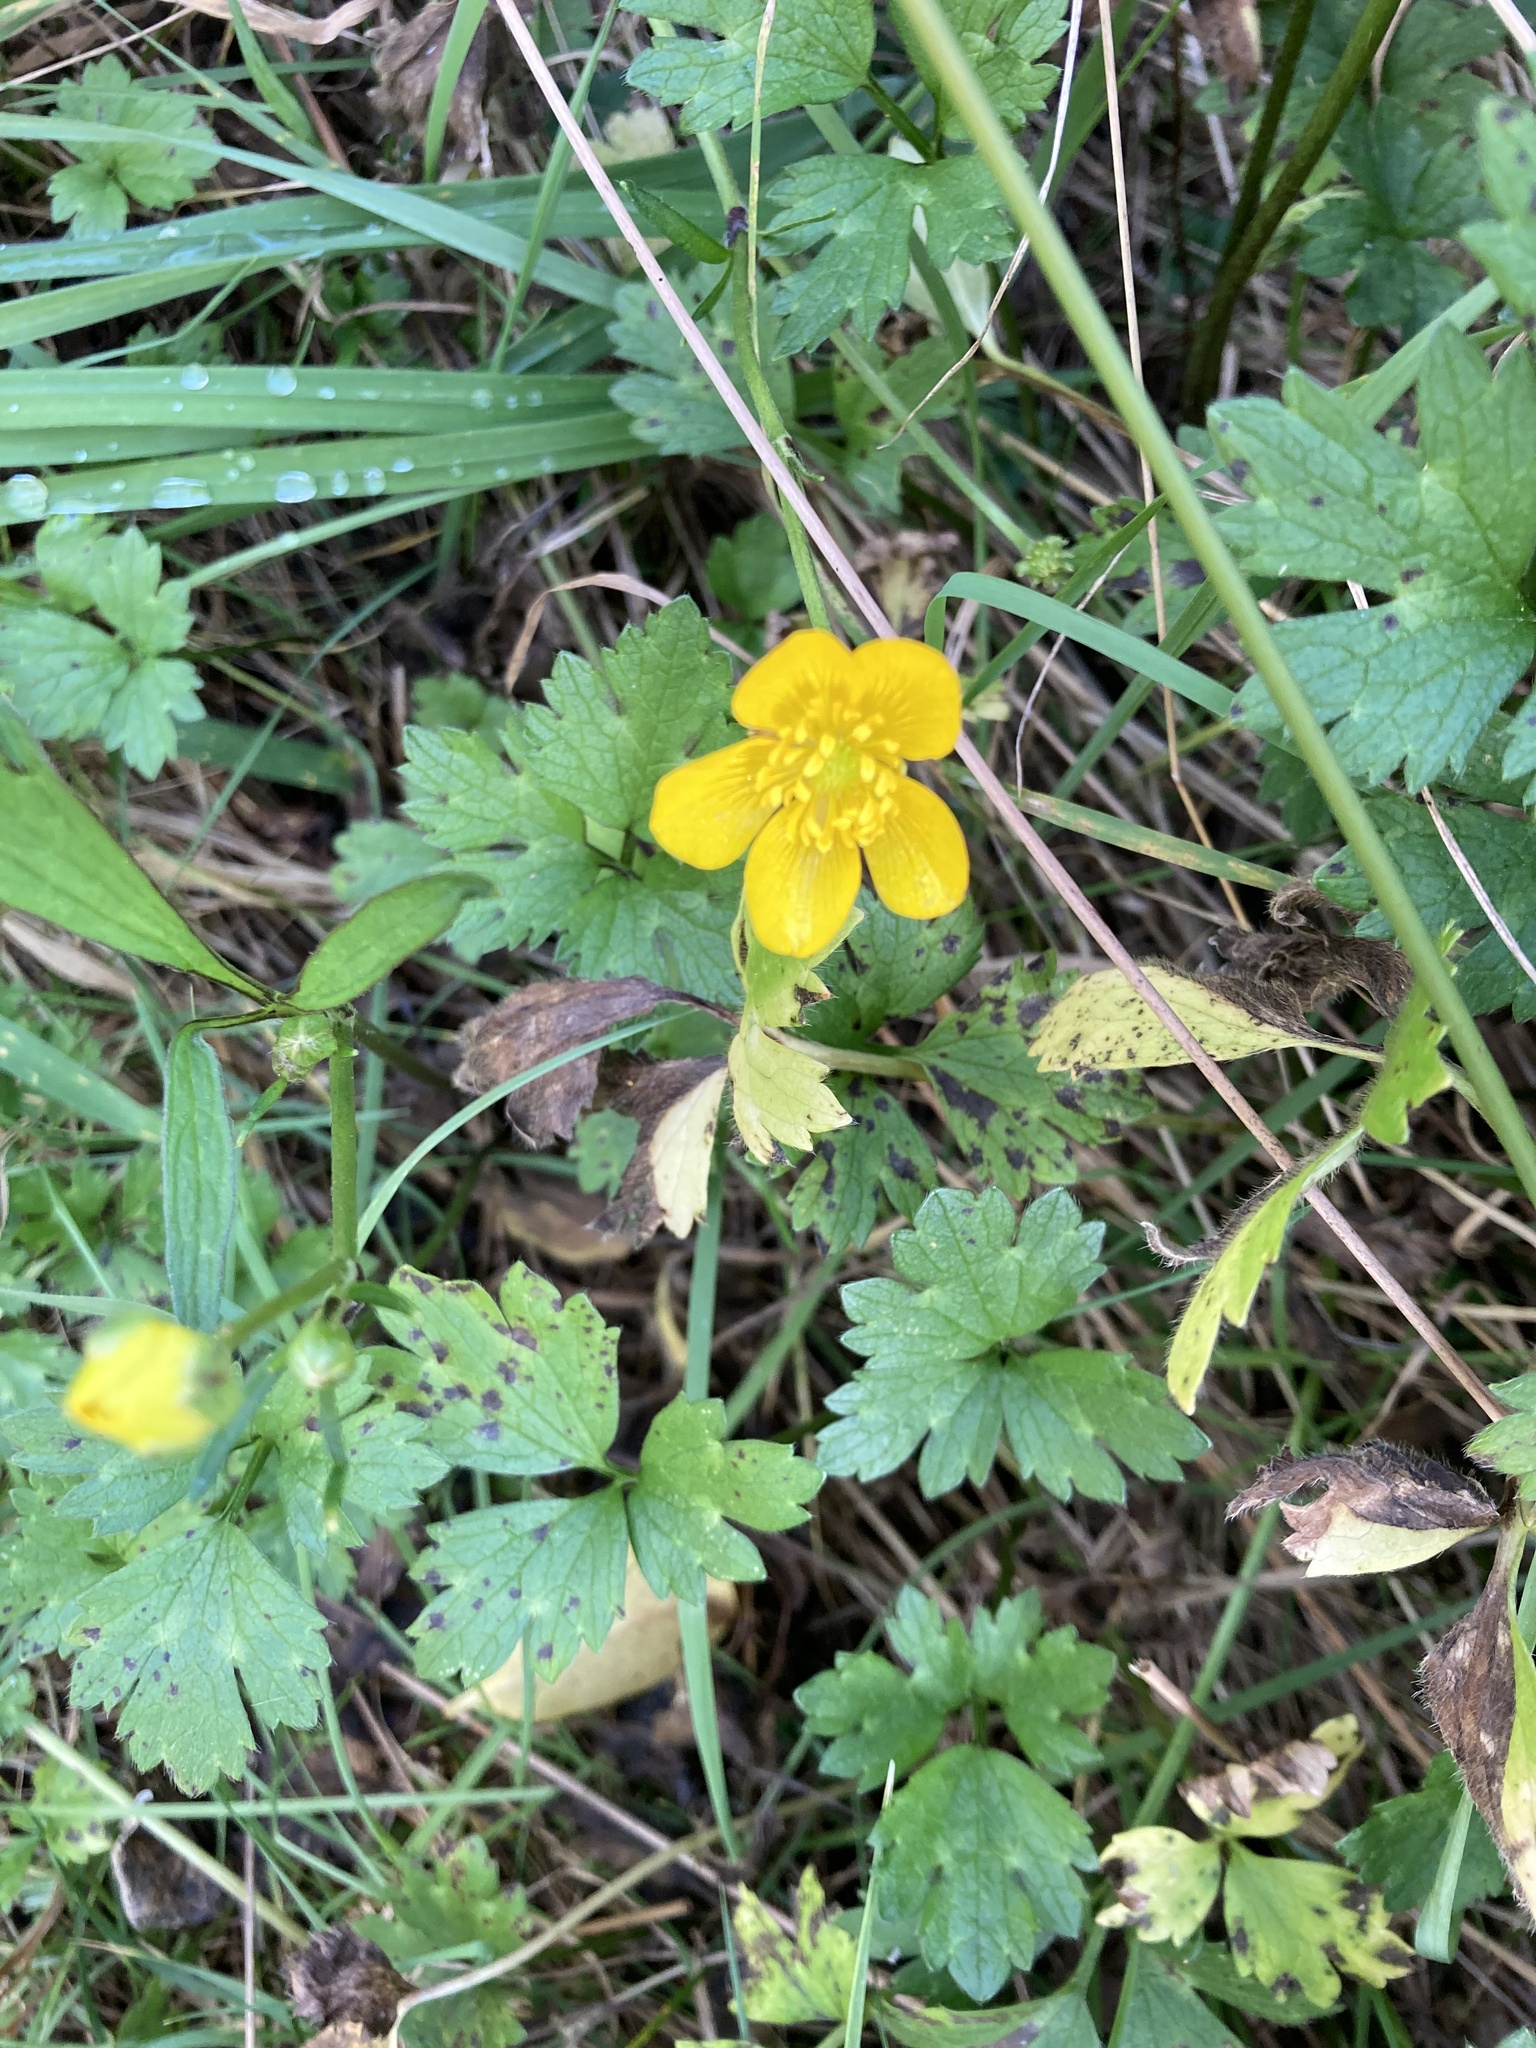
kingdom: Plantae
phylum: Tracheophyta
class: Magnoliopsida
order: Ranunculales
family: Ranunculaceae
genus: Ranunculus
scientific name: Ranunculus repens
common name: Creeping buttercup
